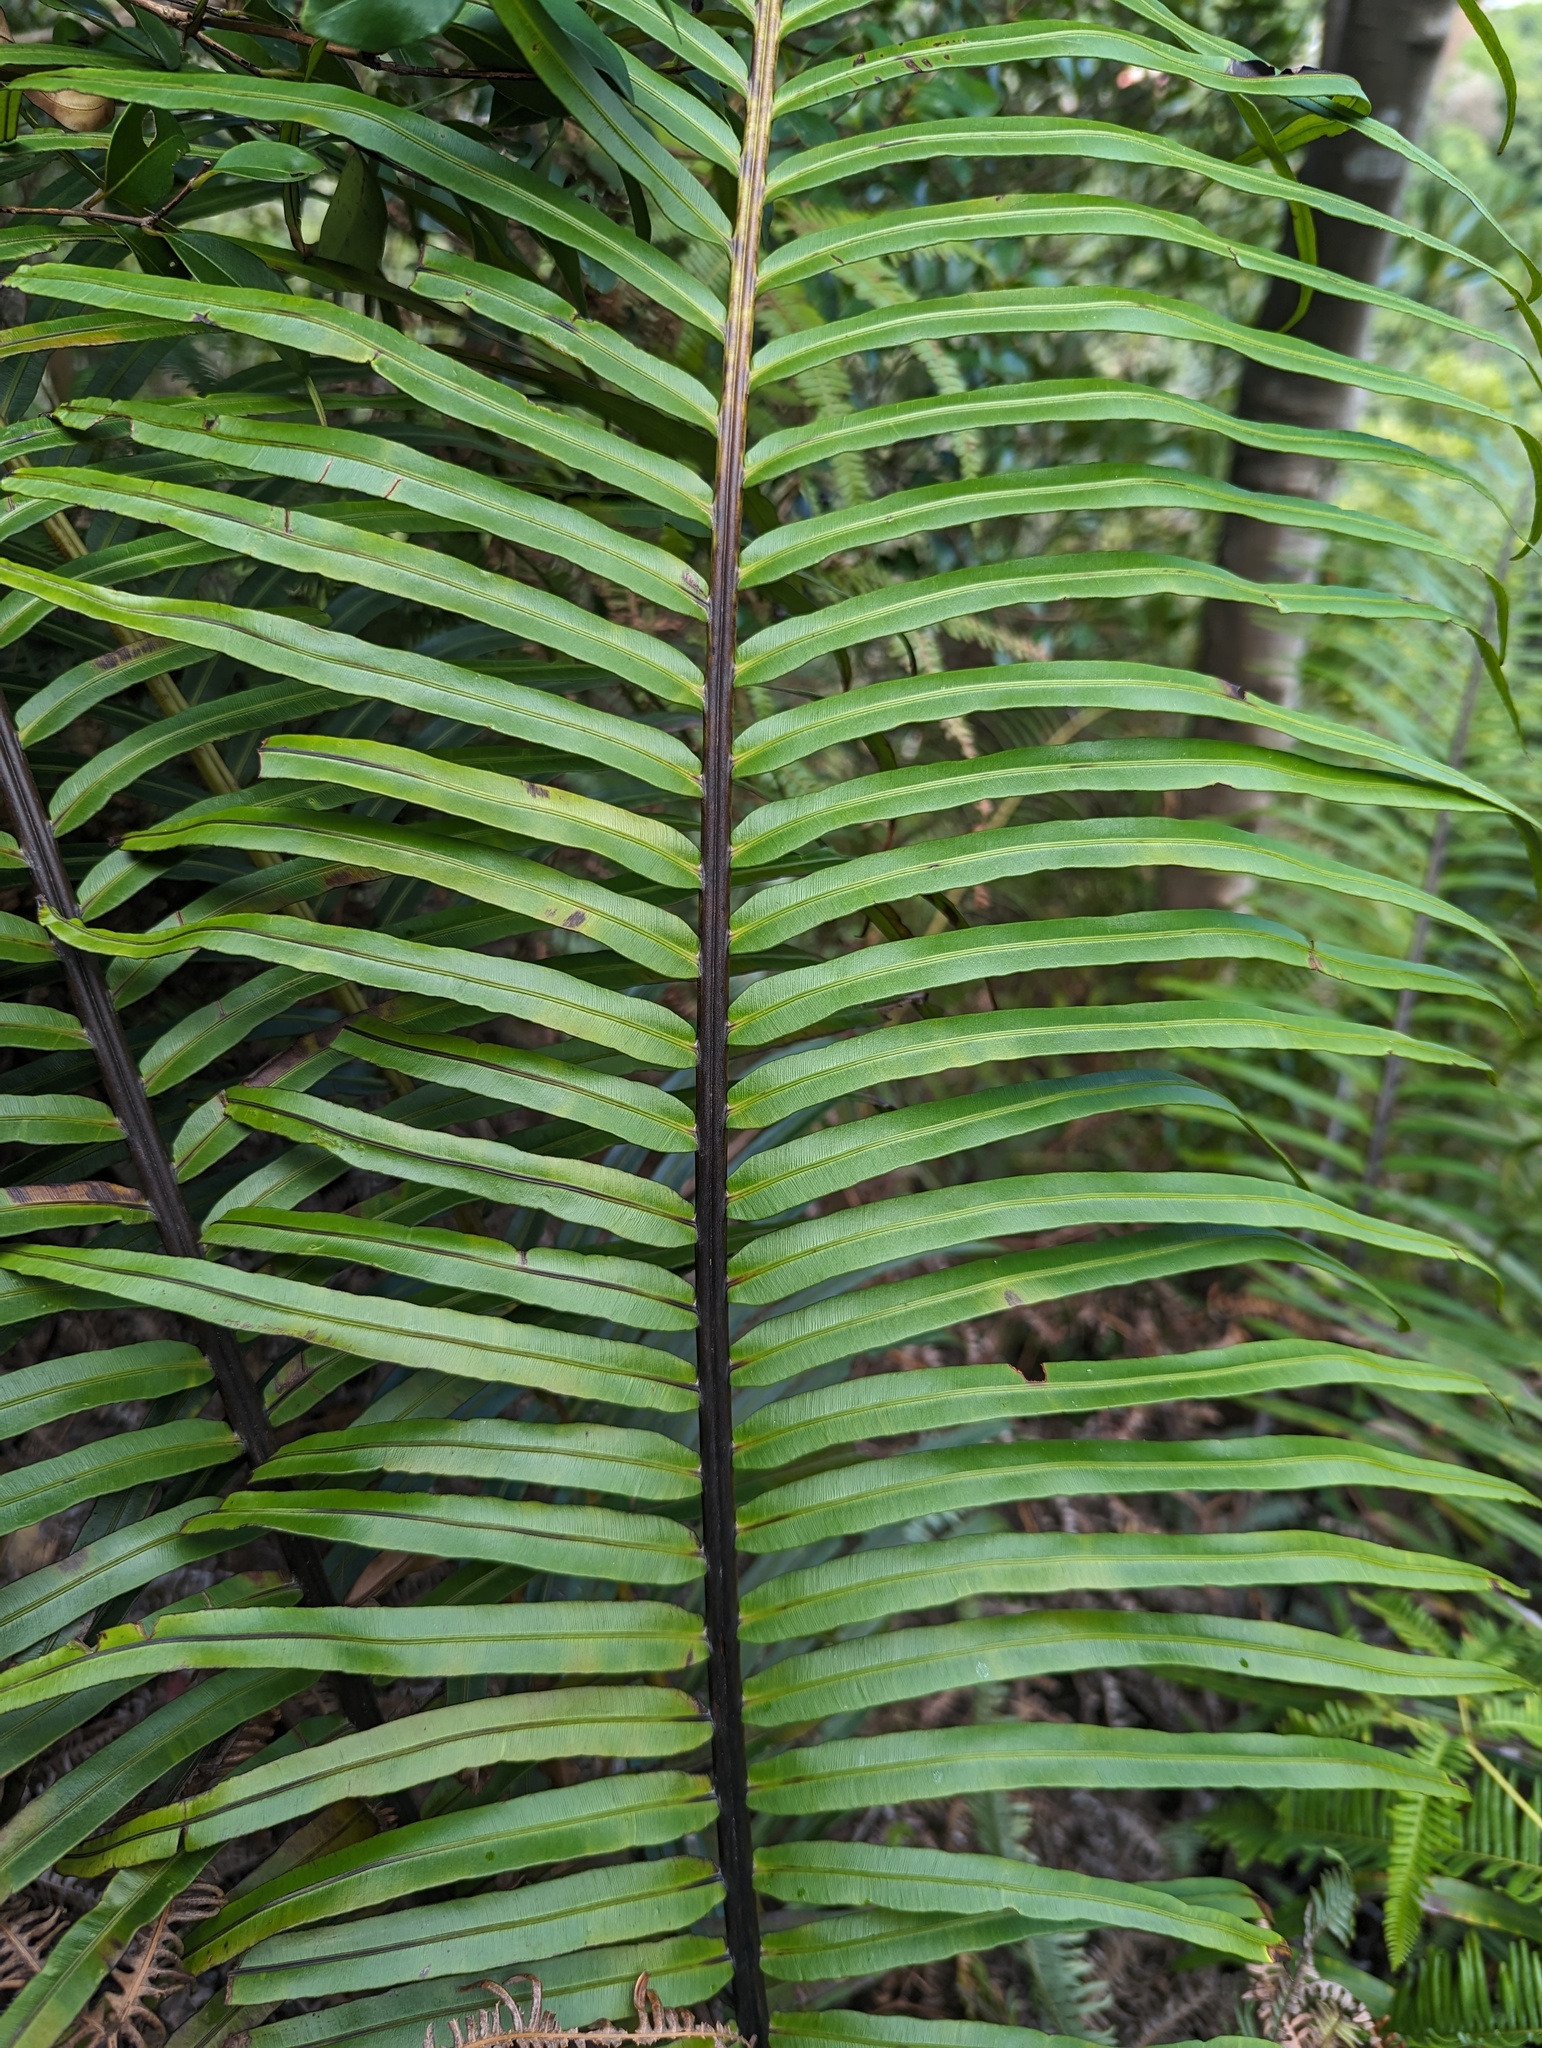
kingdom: Plantae
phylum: Tracheophyta
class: Polypodiopsida
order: Polypodiales
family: Blechnaceae
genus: Blechnopsis
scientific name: Blechnopsis orientalis
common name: Oriental blechnum
